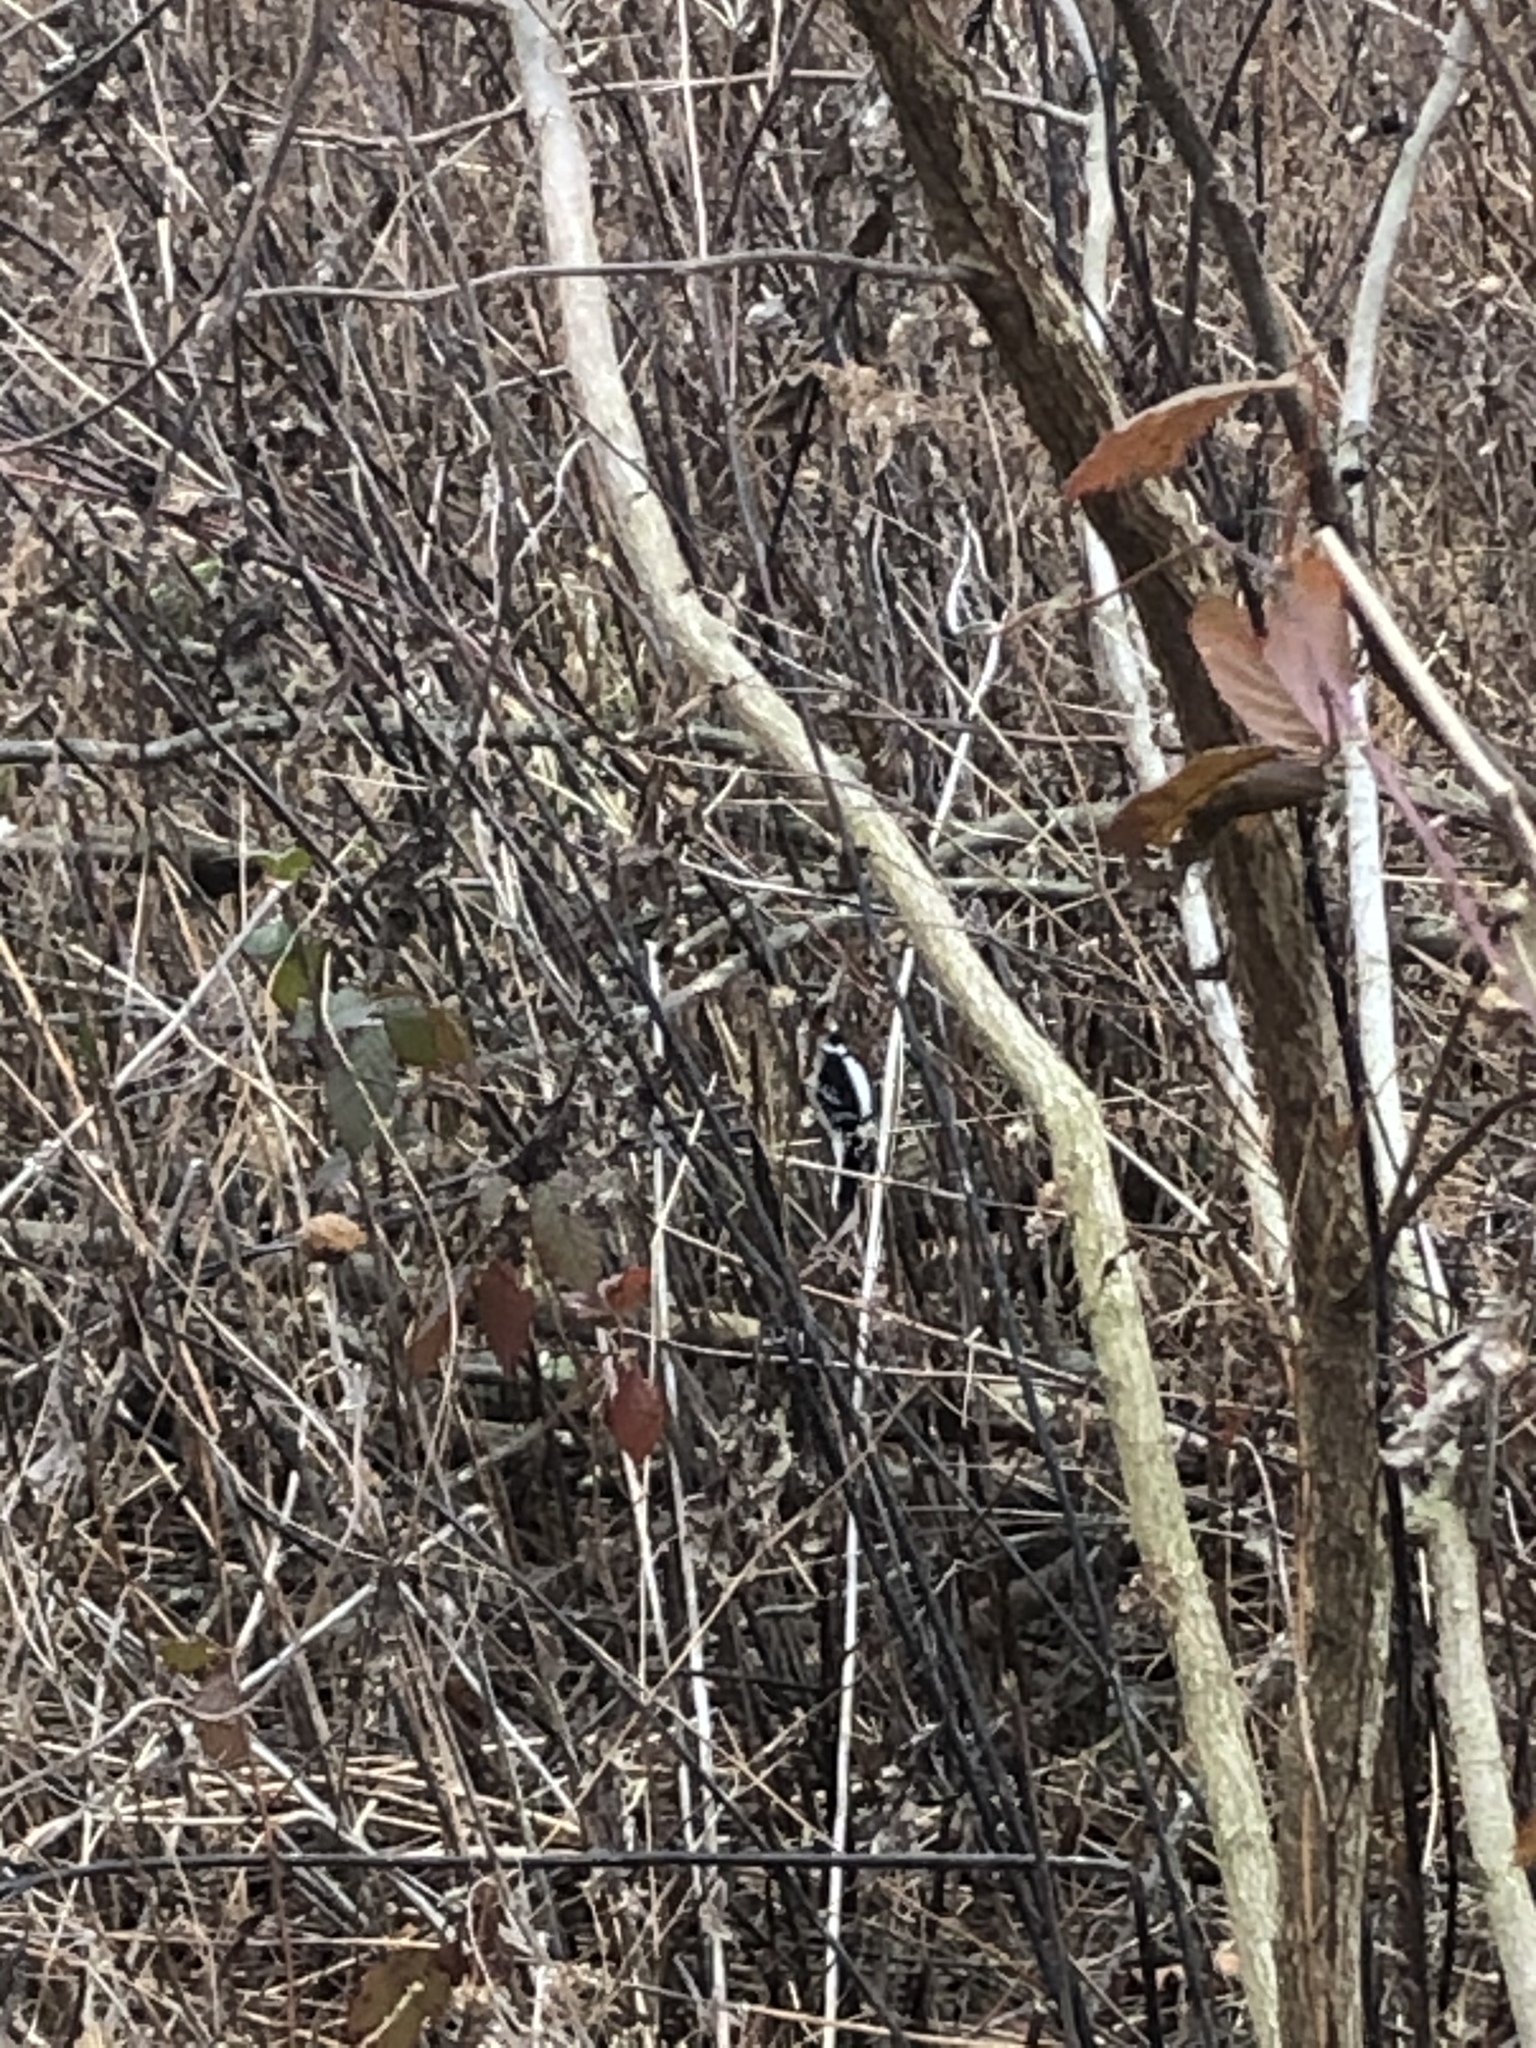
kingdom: Animalia
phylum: Chordata
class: Aves
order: Piciformes
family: Picidae
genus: Dryobates
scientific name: Dryobates pubescens
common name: Downy woodpecker
